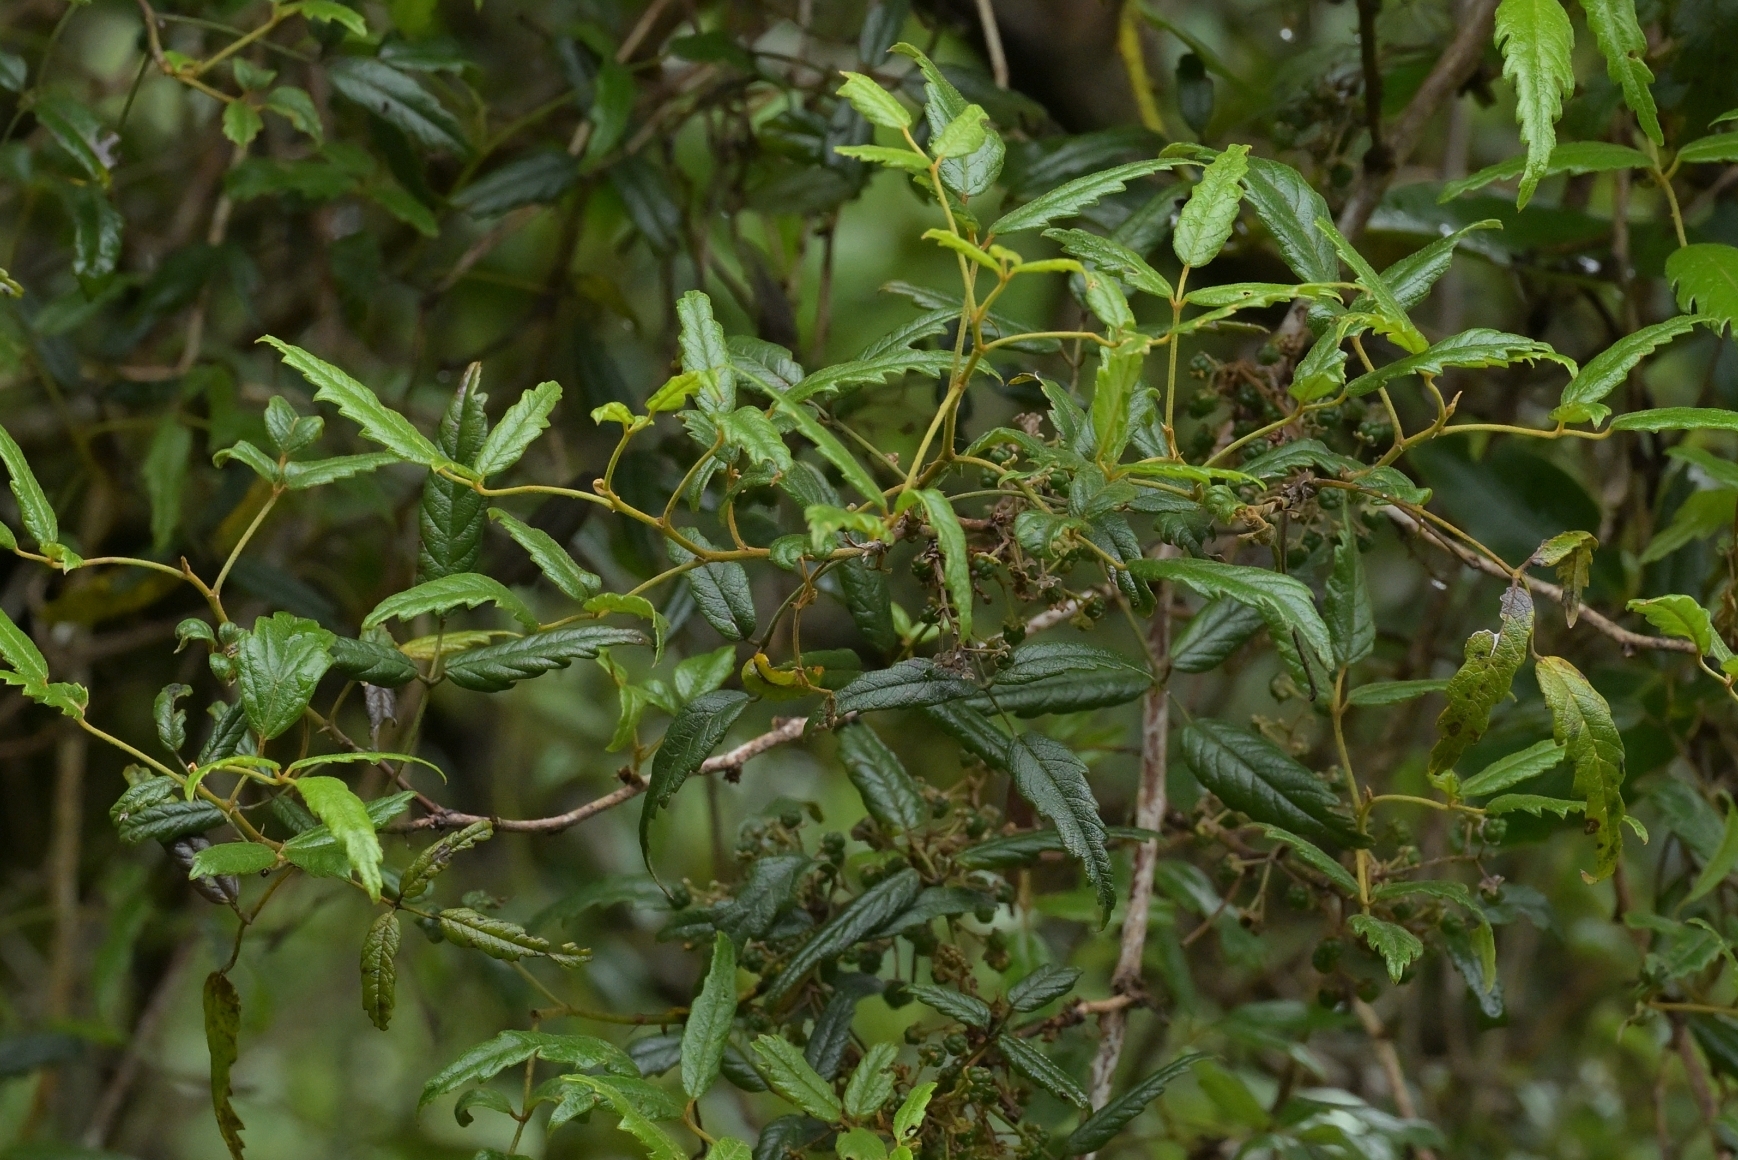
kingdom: Plantae
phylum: Tracheophyta
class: Magnoliopsida
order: Rosales
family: Rosaceae
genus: Rubus
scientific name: Rubus schmidelioides
